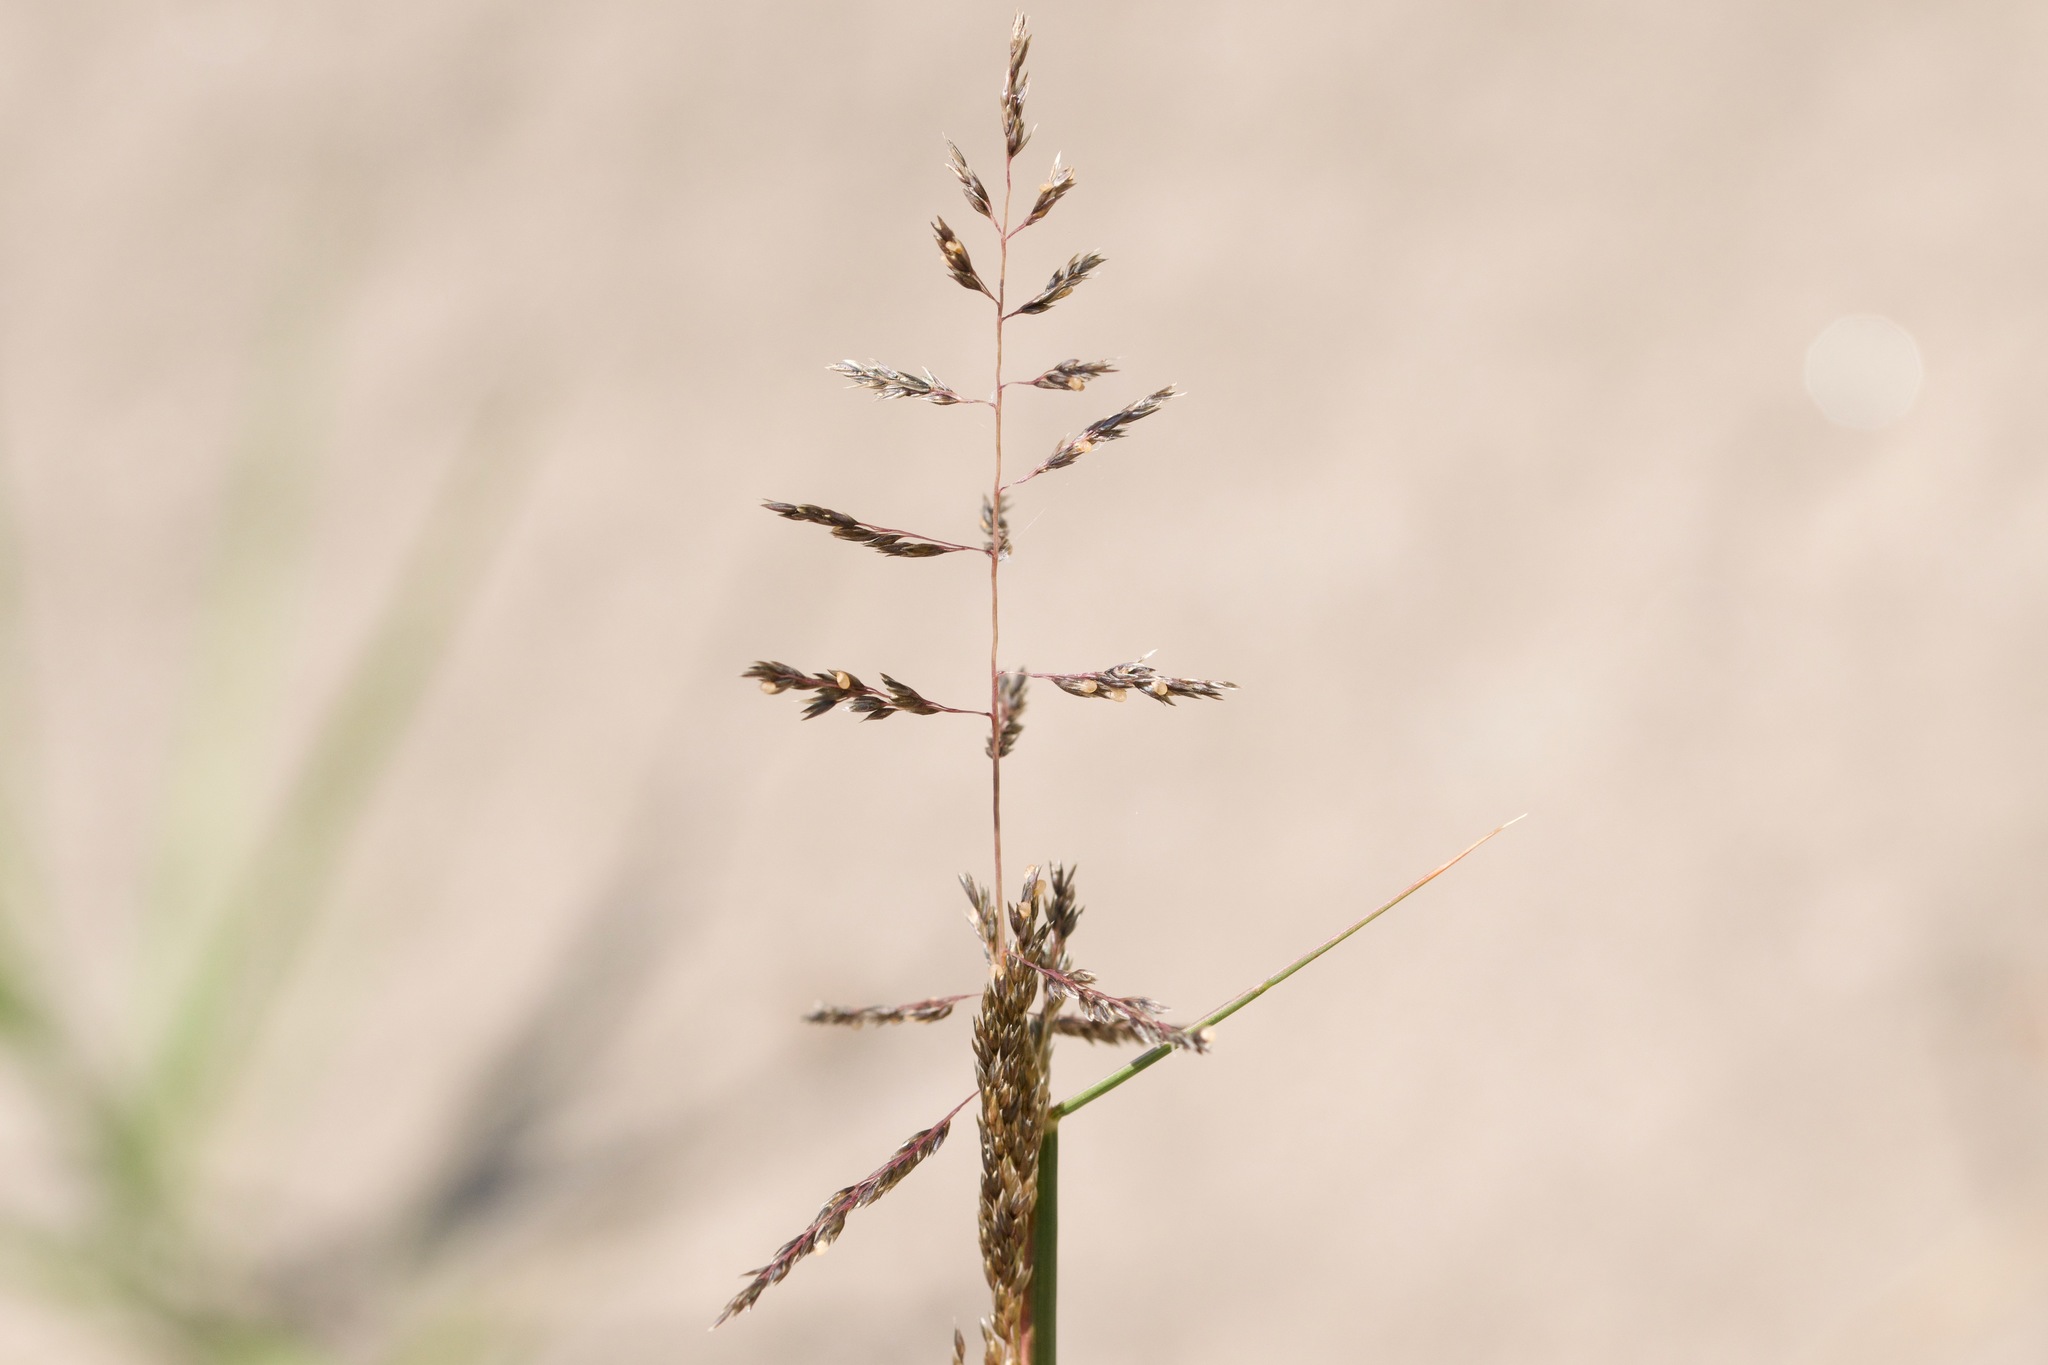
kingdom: Plantae
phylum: Tracheophyta
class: Liliopsida
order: Poales
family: Poaceae
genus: Sporobolus
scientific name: Sporobolus cryptandrus
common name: Sand dropseed
